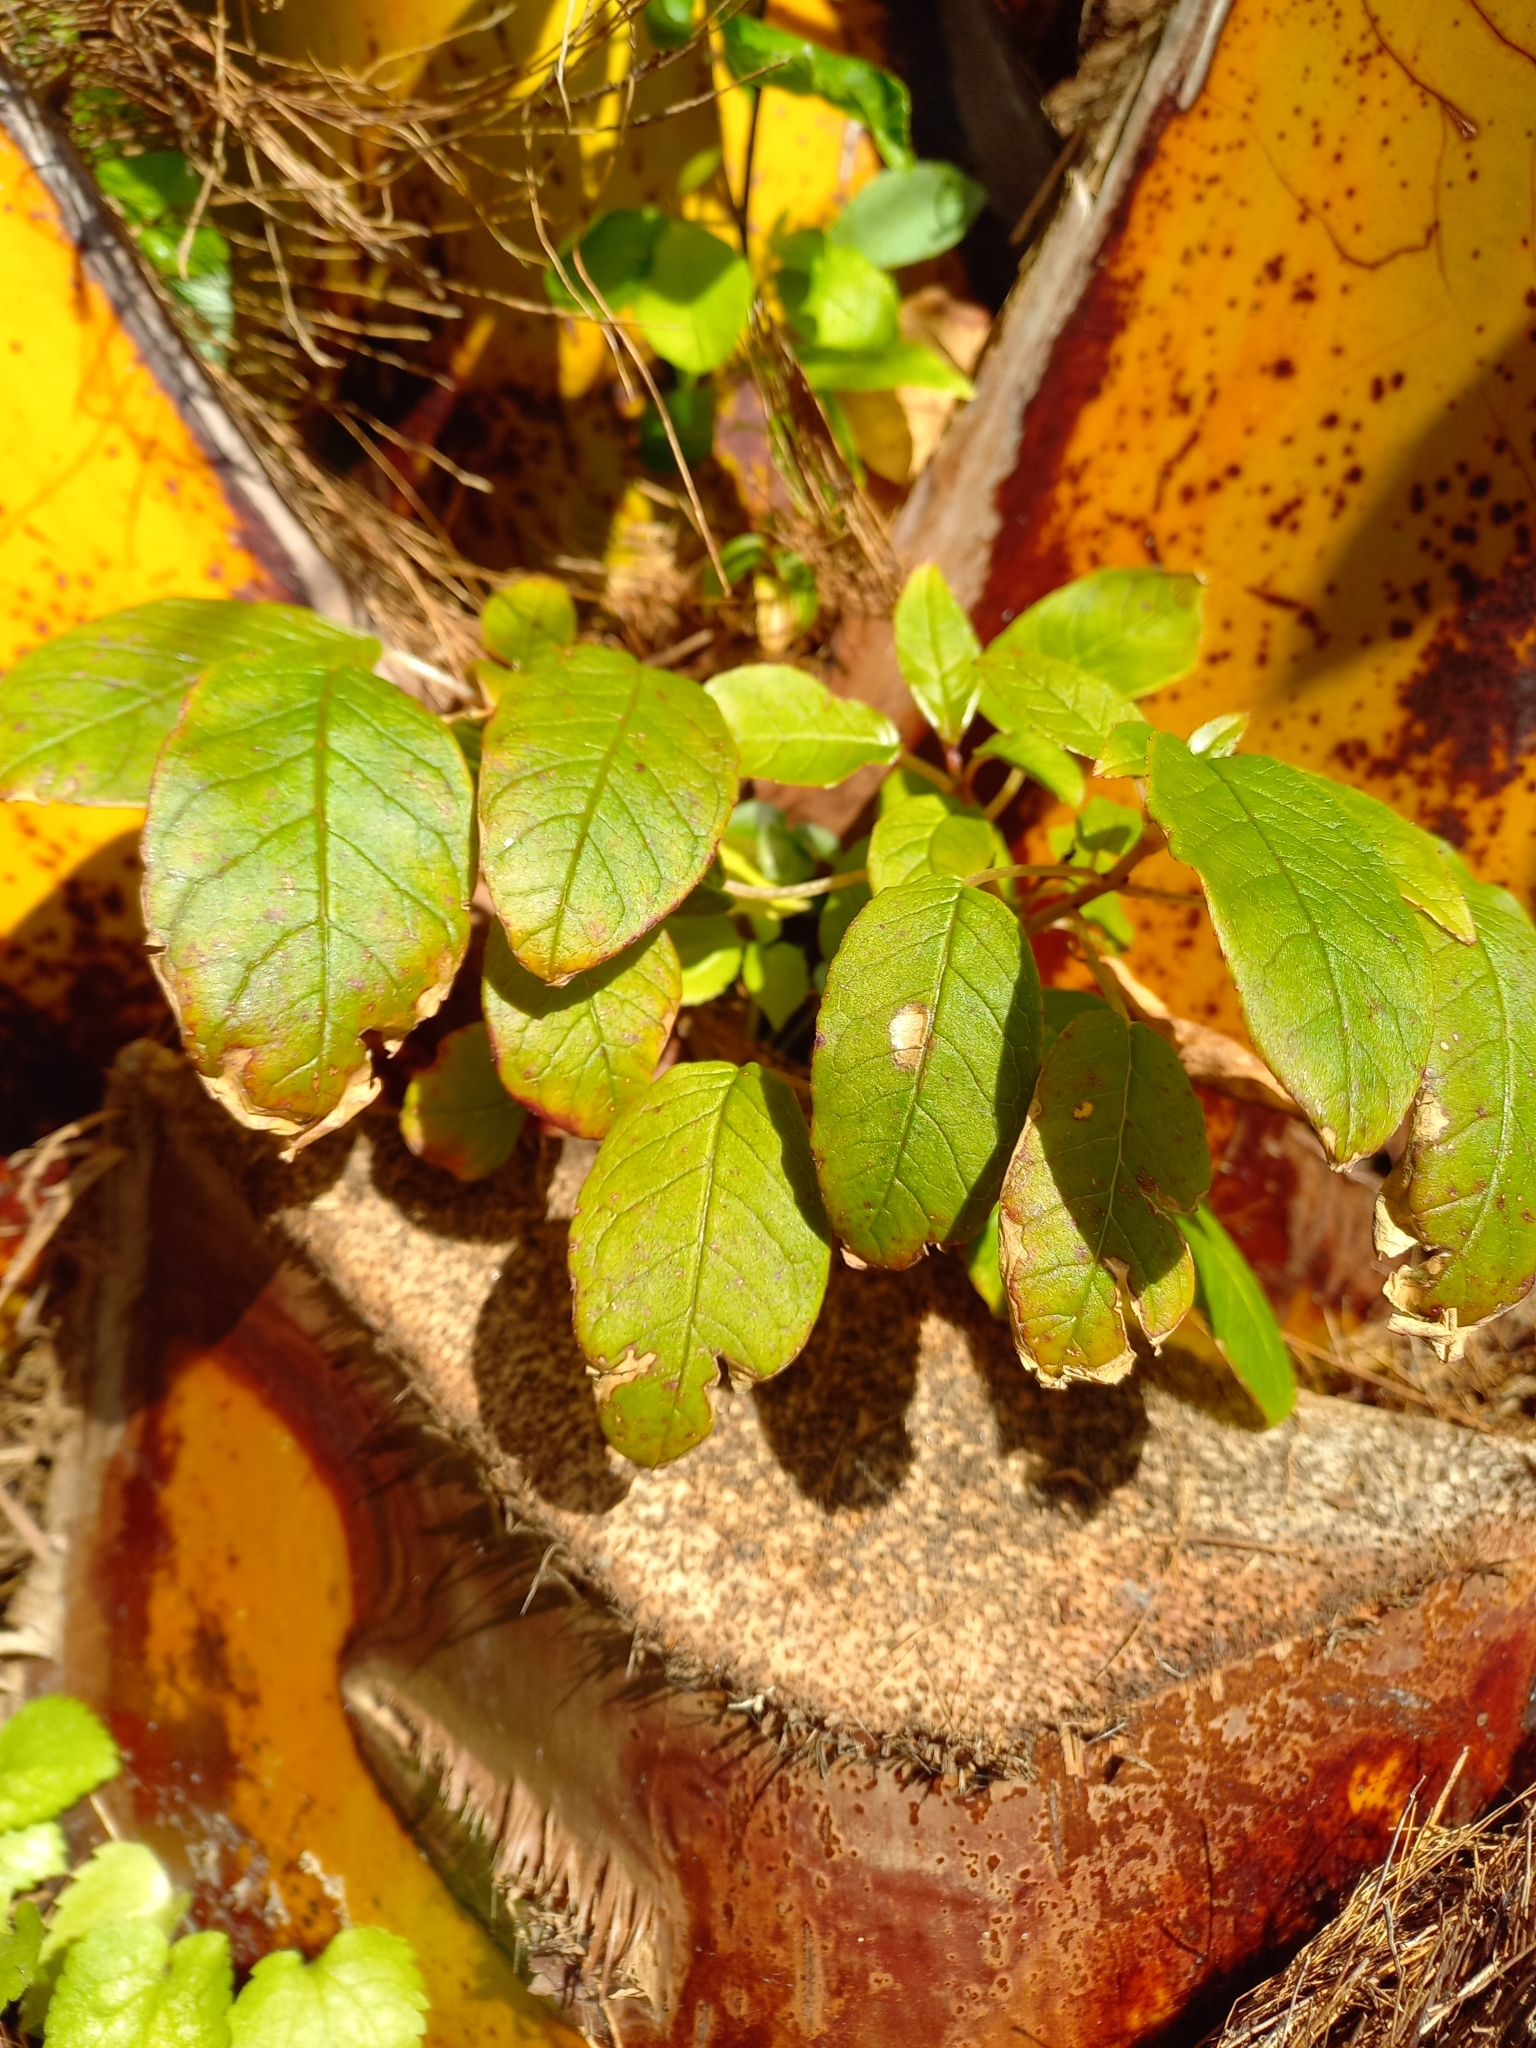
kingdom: Plantae
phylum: Tracheophyta
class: Magnoliopsida
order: Myrtales
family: Onagraceae
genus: Fuchsia
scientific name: Fuchsia excorticata
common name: Tree fuchsia
